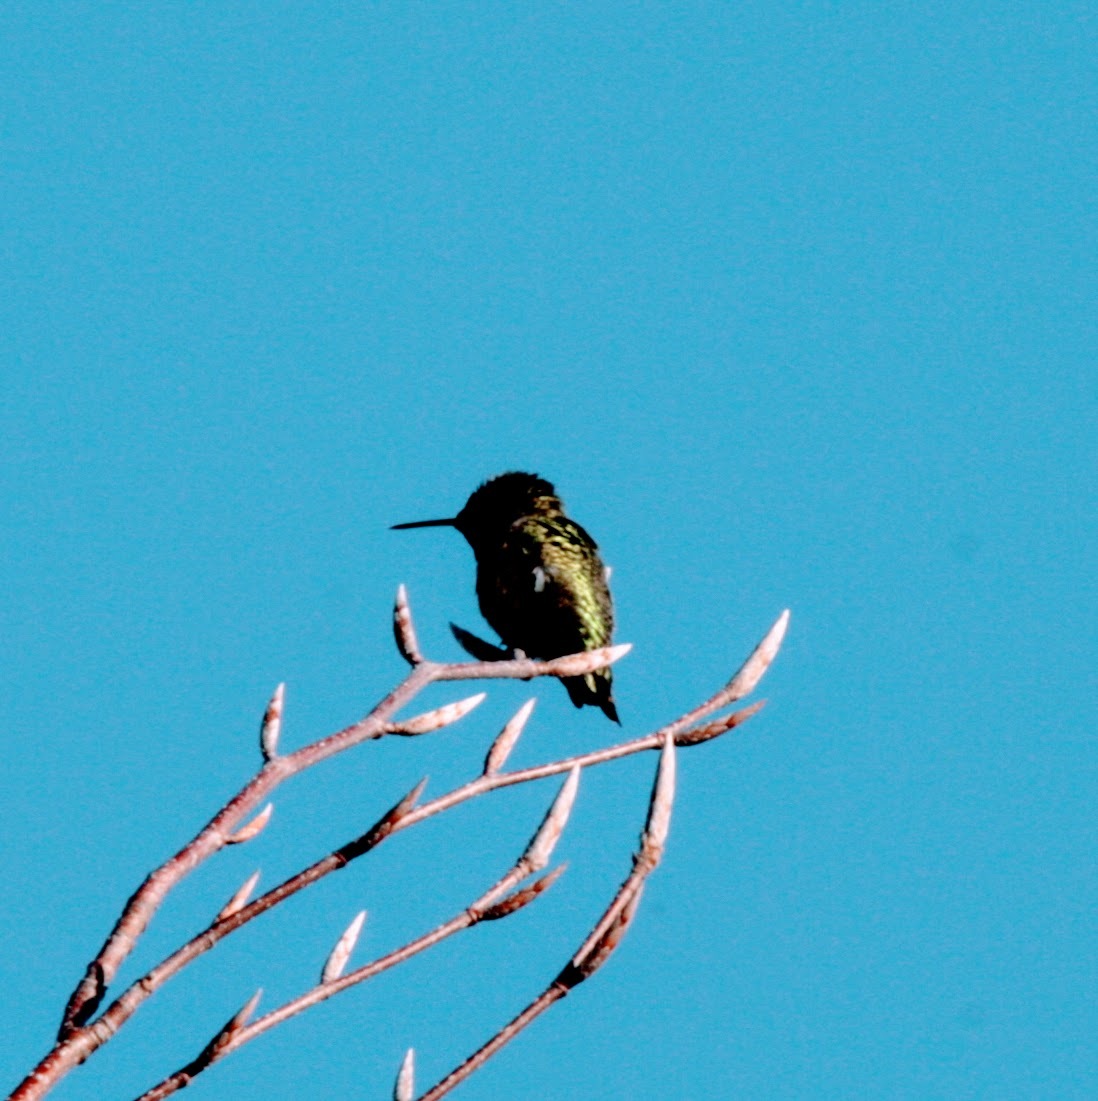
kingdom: Animalia
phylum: Chordata
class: Aves
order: Apodiformes
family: Trochilidae
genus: Calypte
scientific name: Calypte anna
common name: Anna's hummingbird
